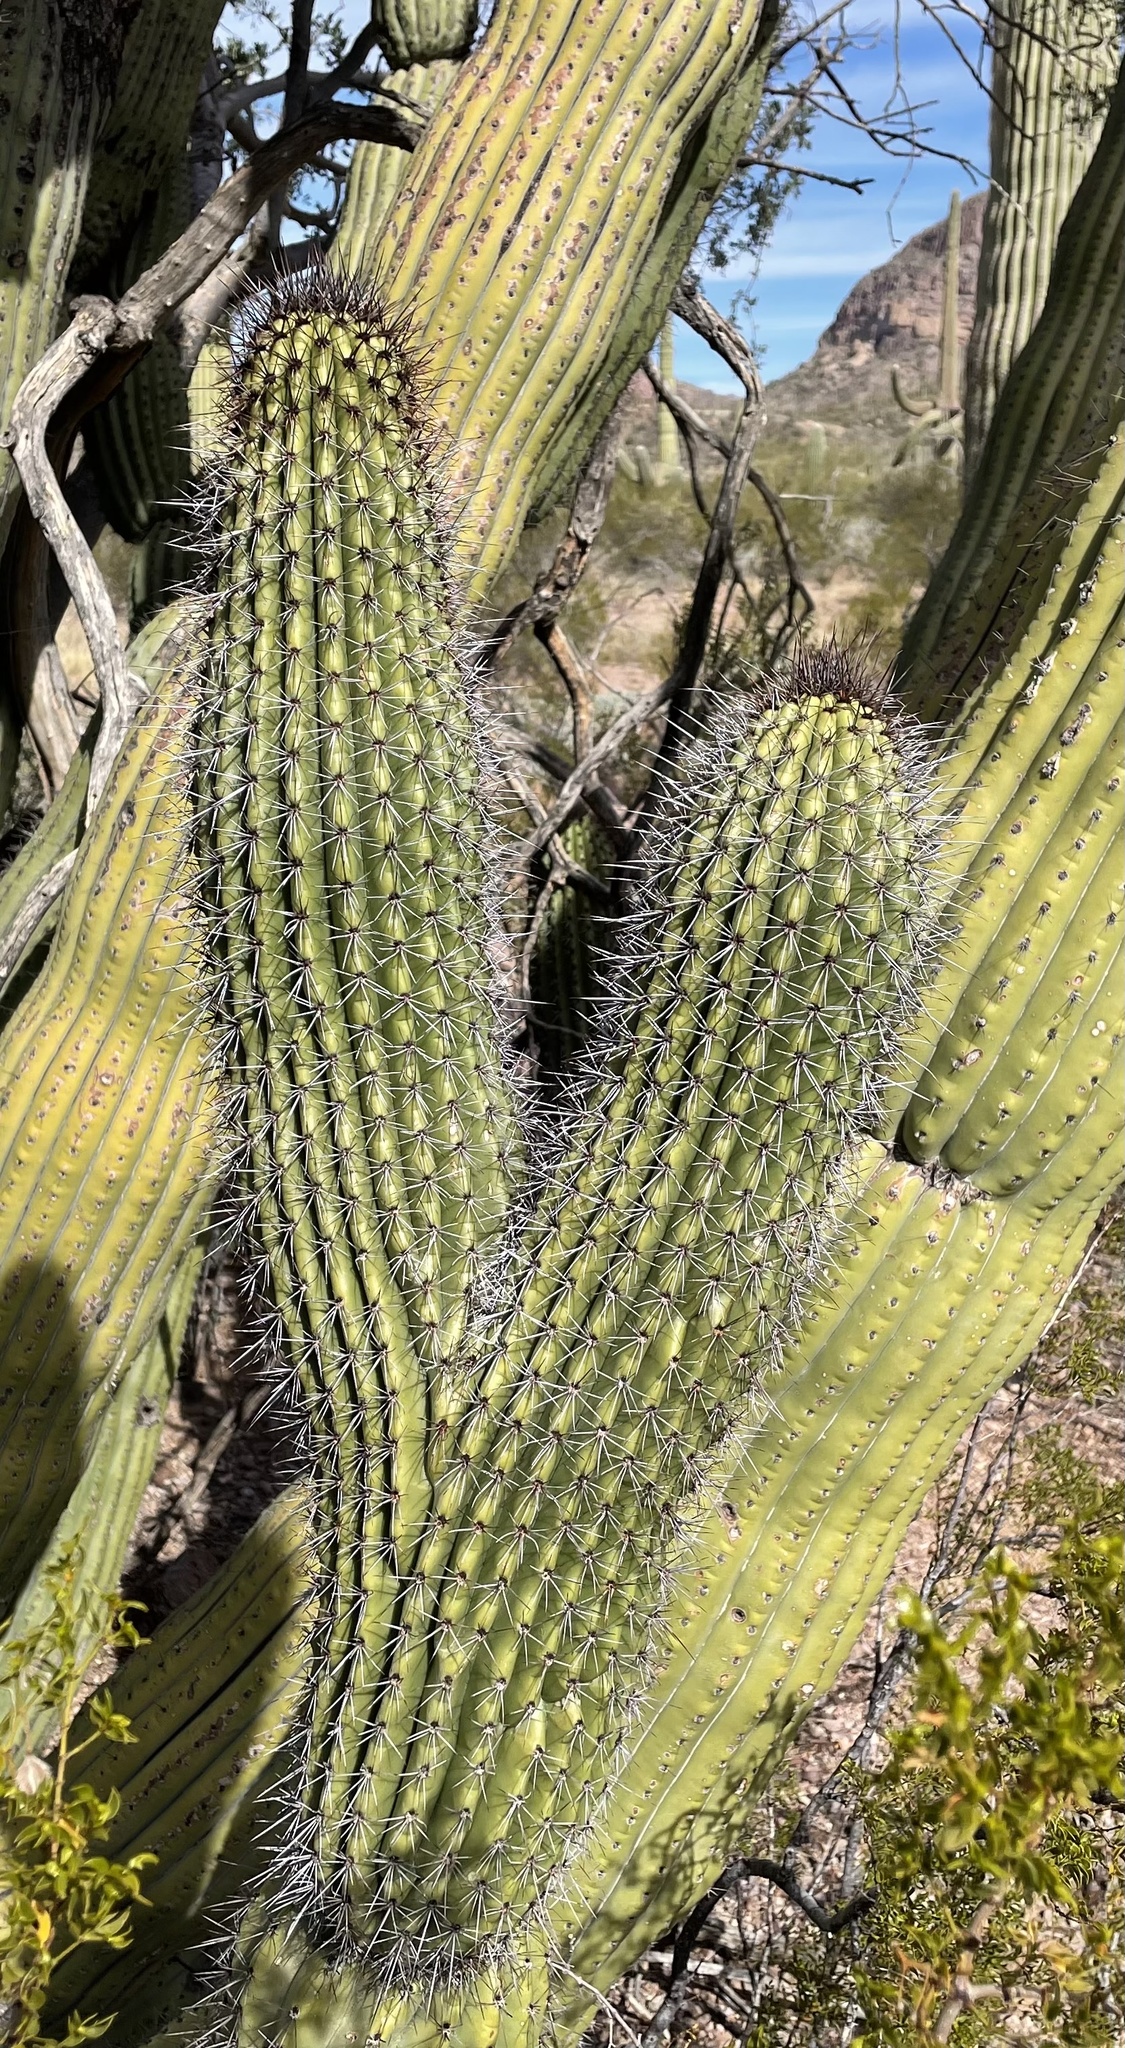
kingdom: Plantae
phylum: Tracheophyta
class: Magnoliopsida
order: Caryophyllales
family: Cactaceae
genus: Stenocereus
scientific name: Stenocereus thurberi
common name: Organ pipe cactus
